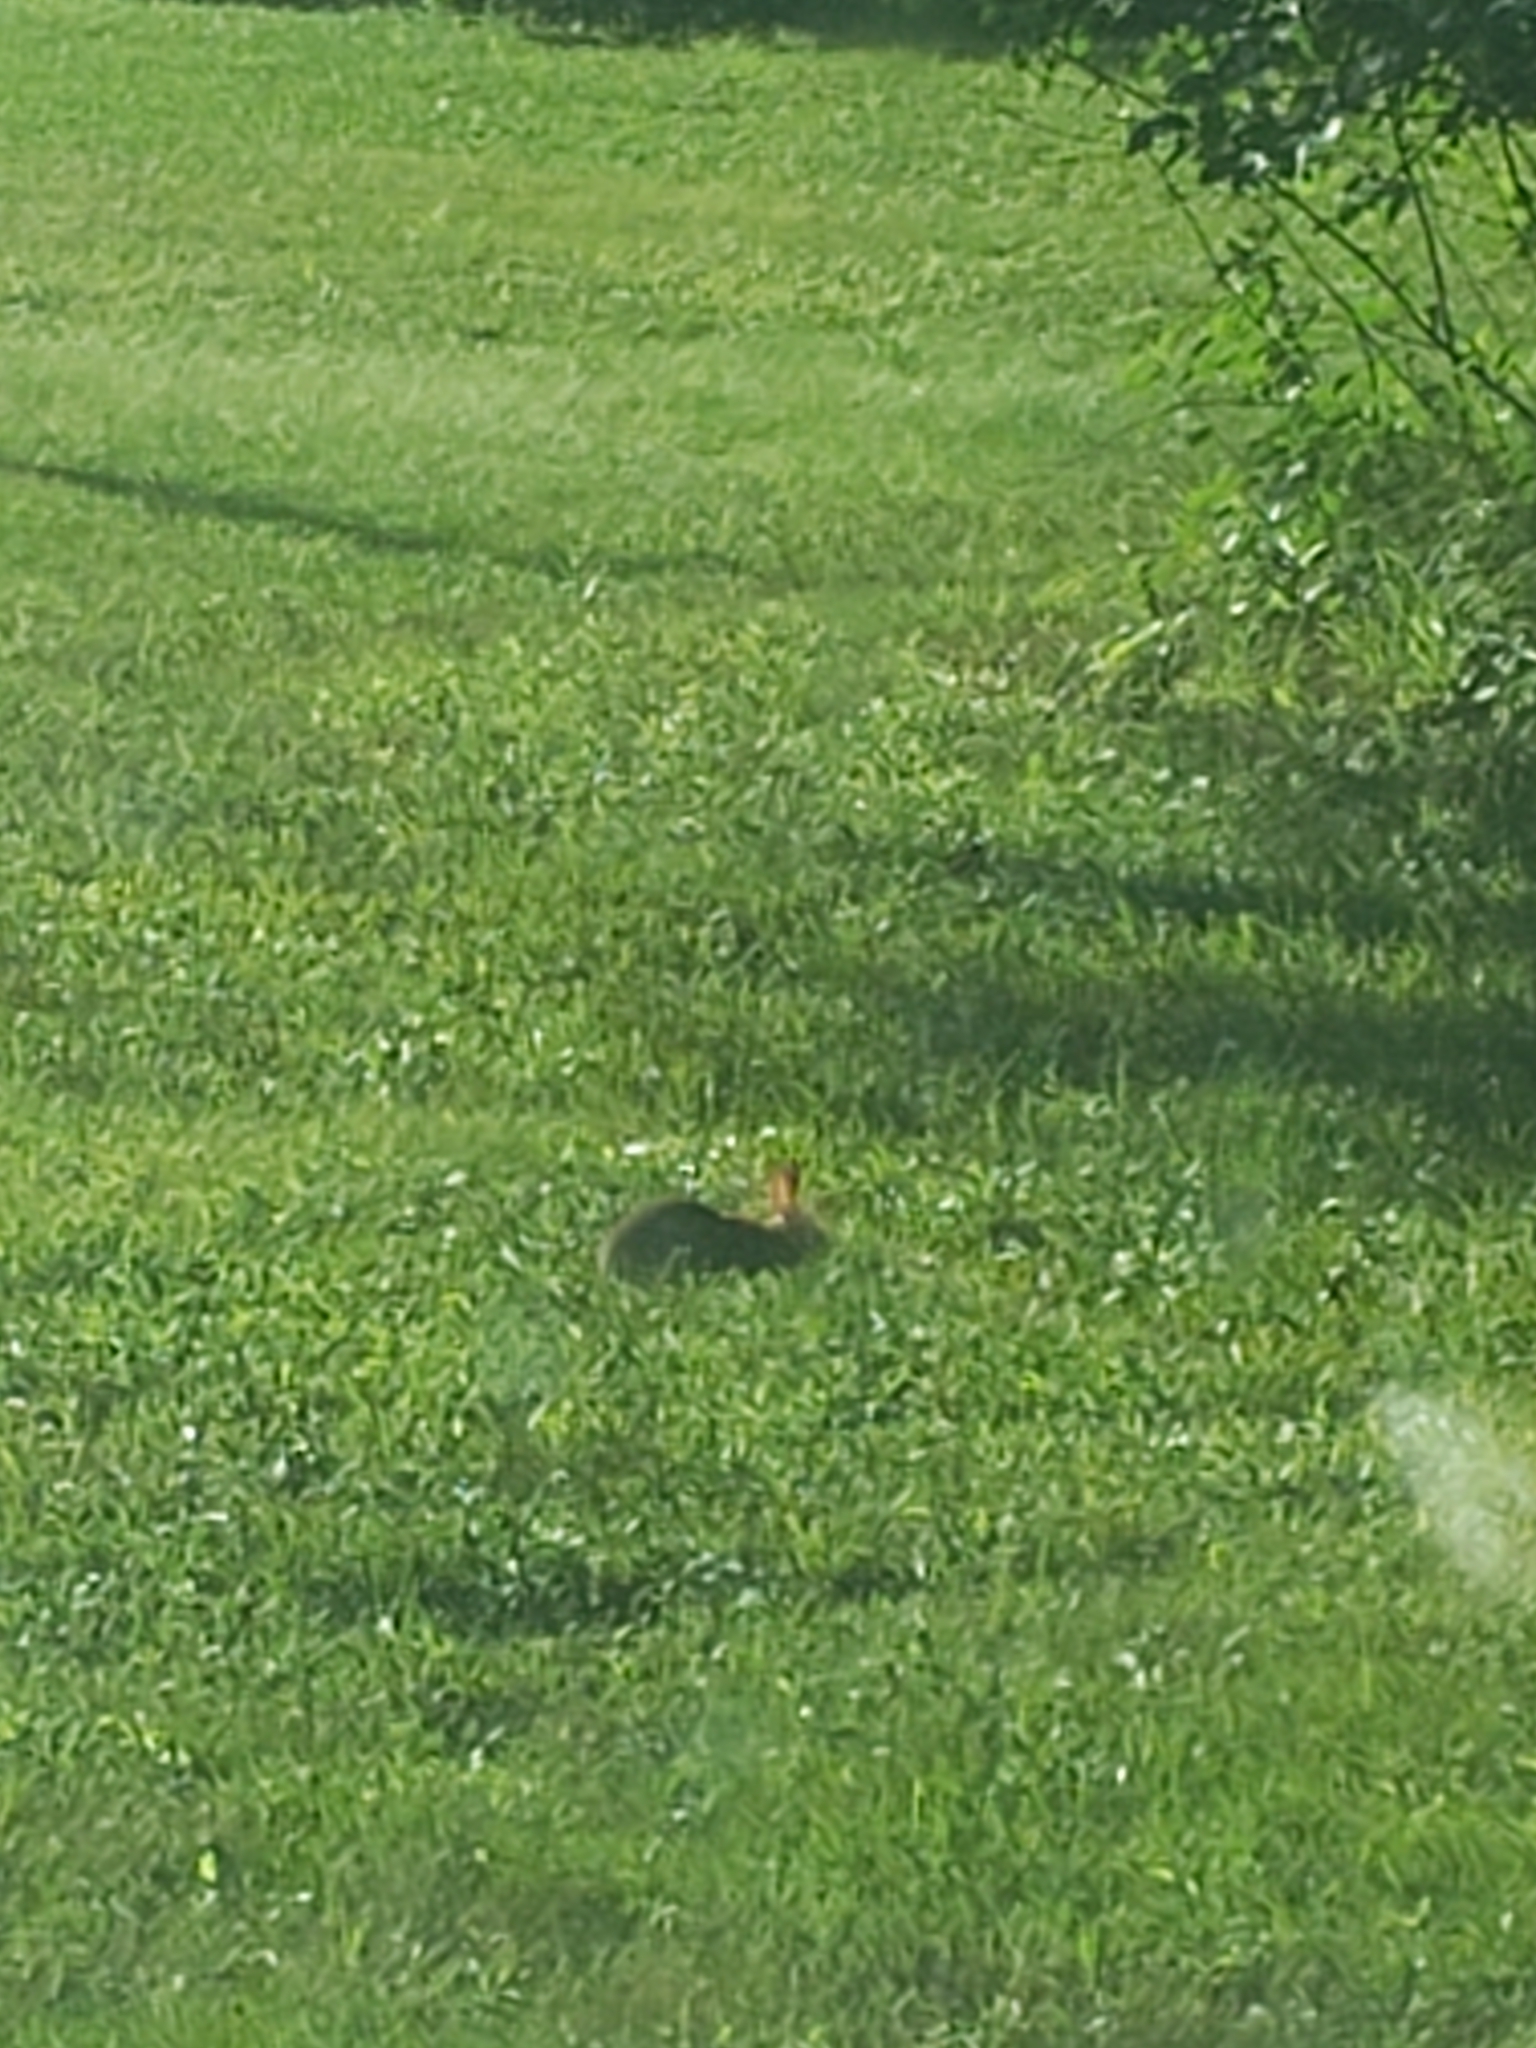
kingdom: Animalia
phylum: Chordata
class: Mammalia
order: Lagomorpha
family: Leporidae
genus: Sylvilagus
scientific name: Sylvilagus floridanus
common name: Eastern cottontail
